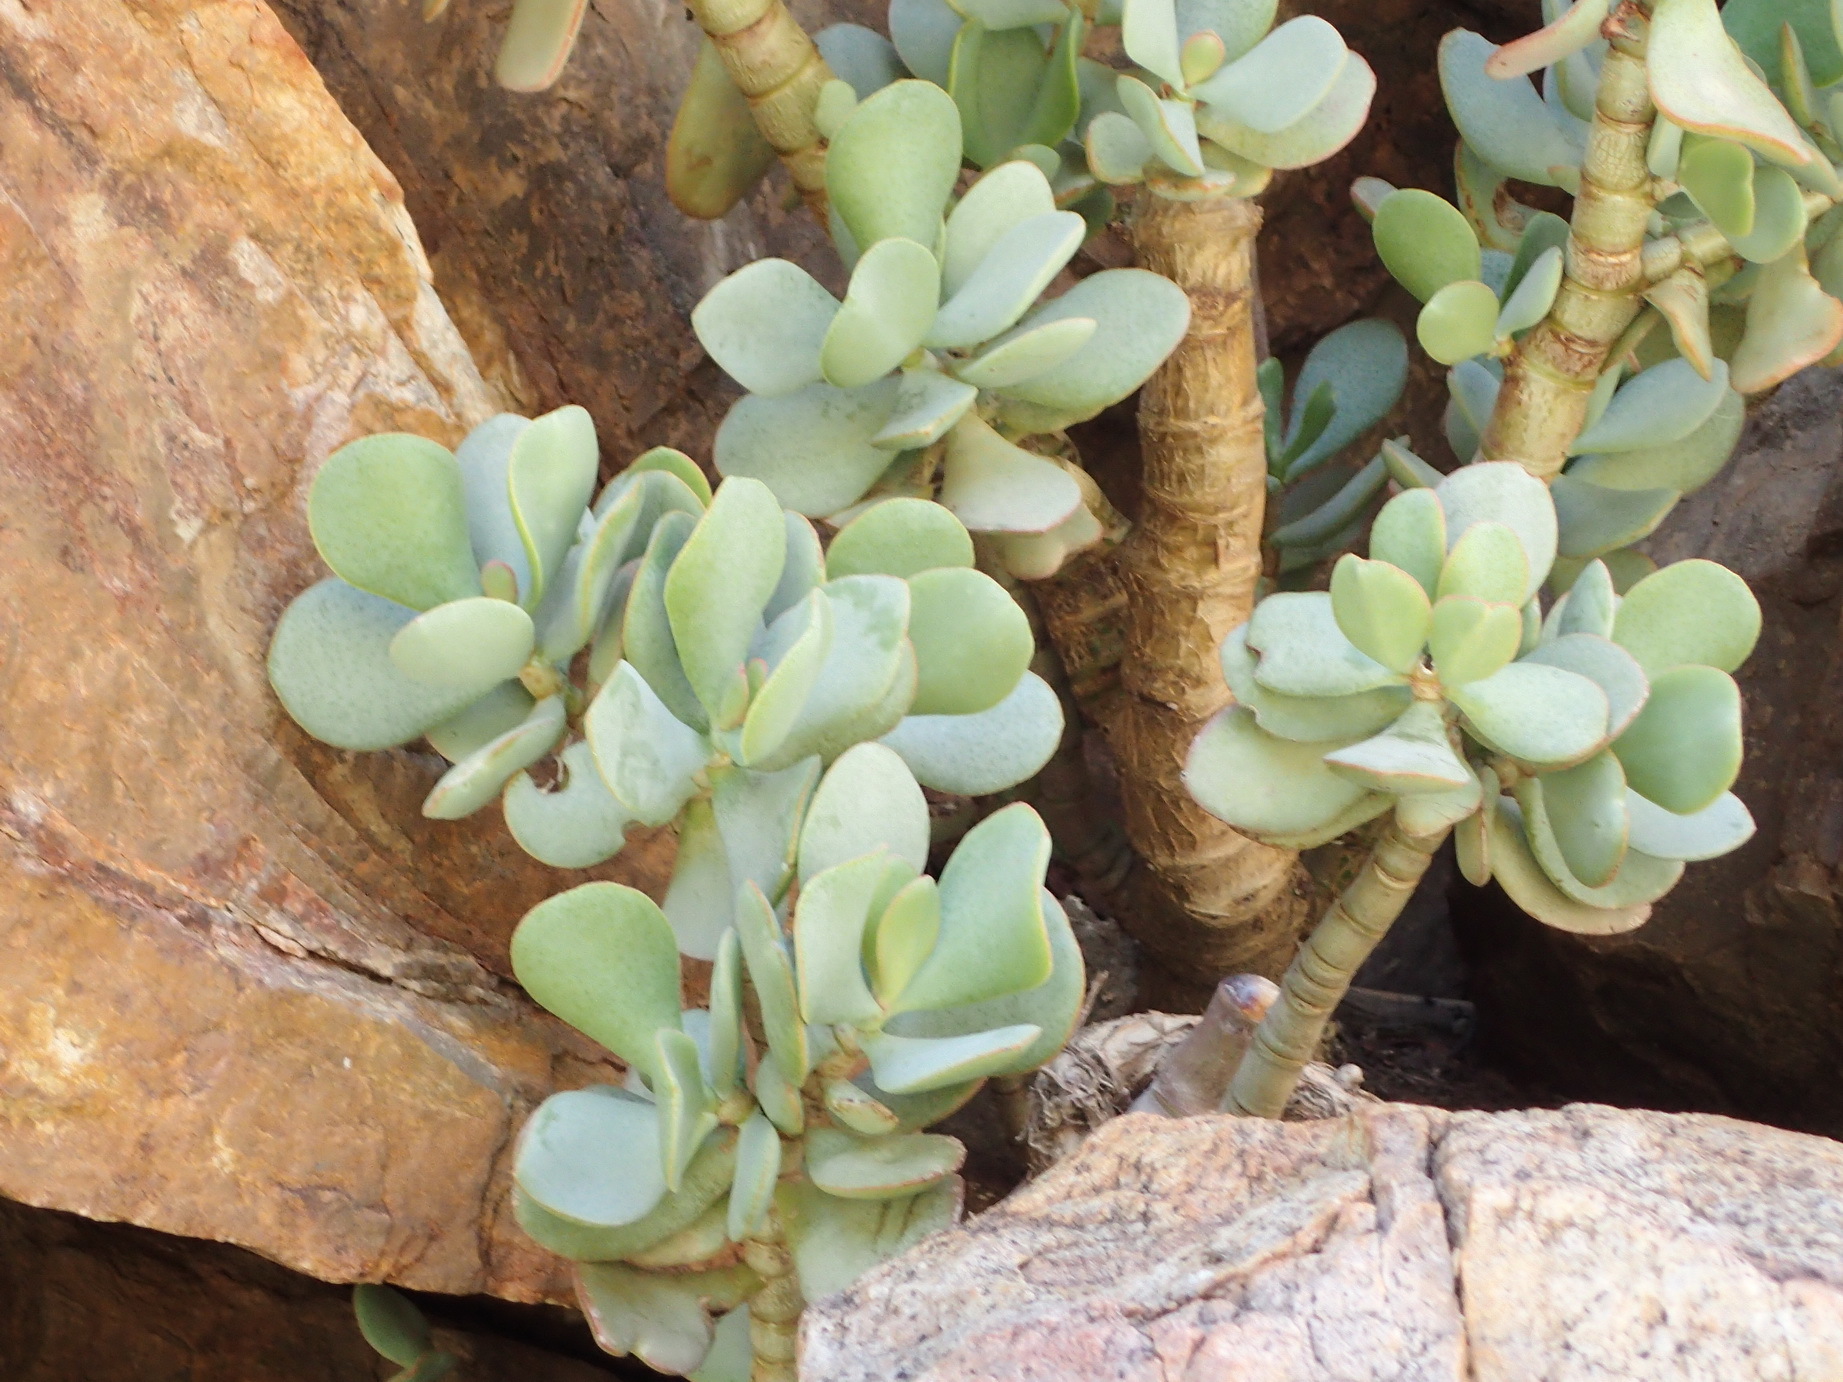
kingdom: Plantae
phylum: Tracheophyta
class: Magnoliopsida
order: Saxifragales
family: Crassulaceae
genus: Crassula
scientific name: Crassula arborescens
